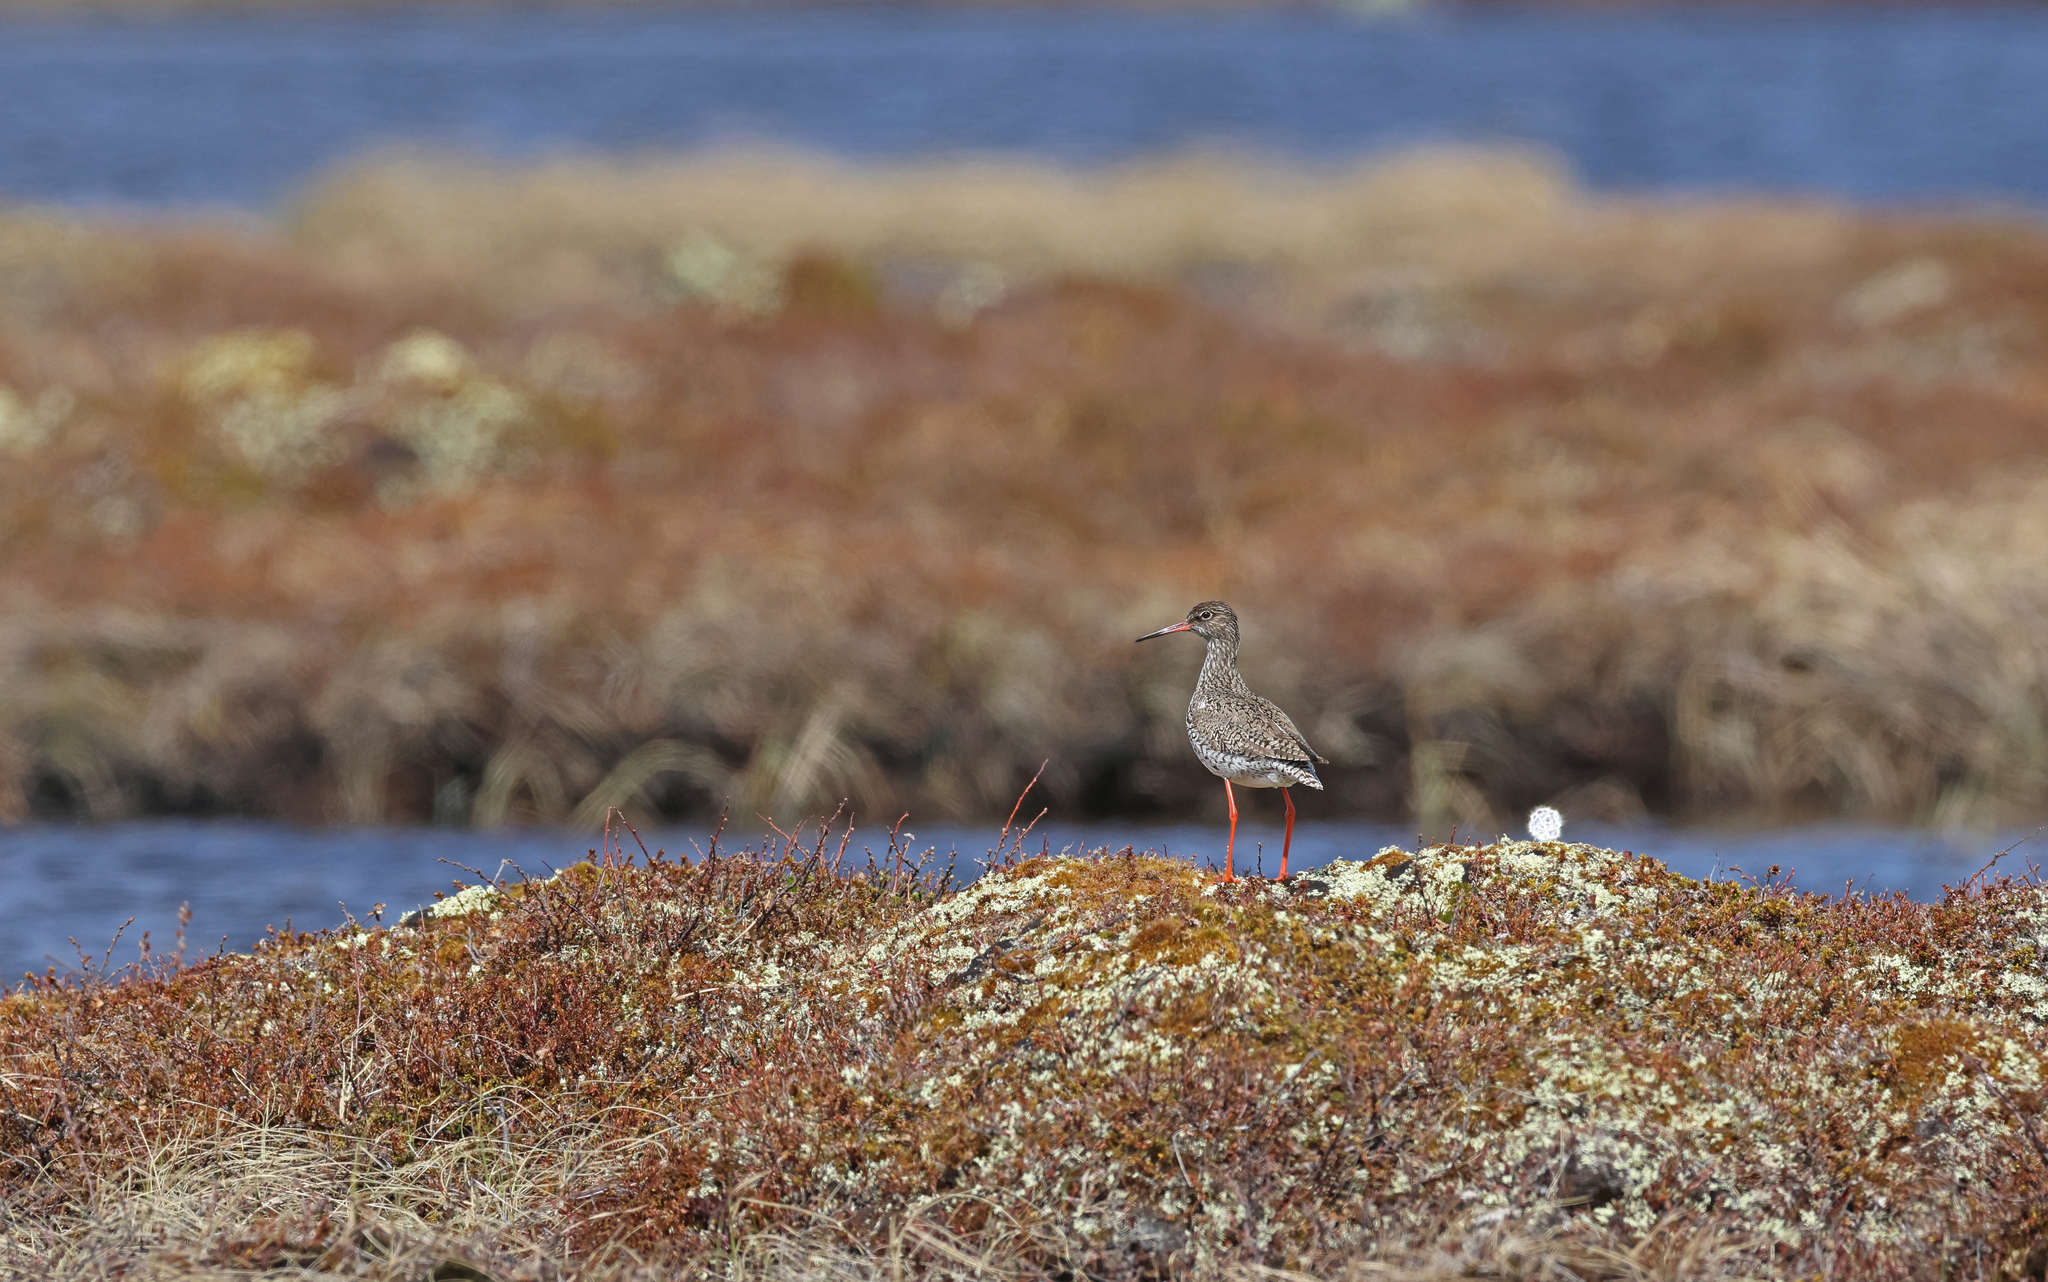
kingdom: Animalia
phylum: Chordata
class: Aves
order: Charadriiformes
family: Scolopacidae
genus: Tringa
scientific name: Tringa totanus
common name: Common redshank
